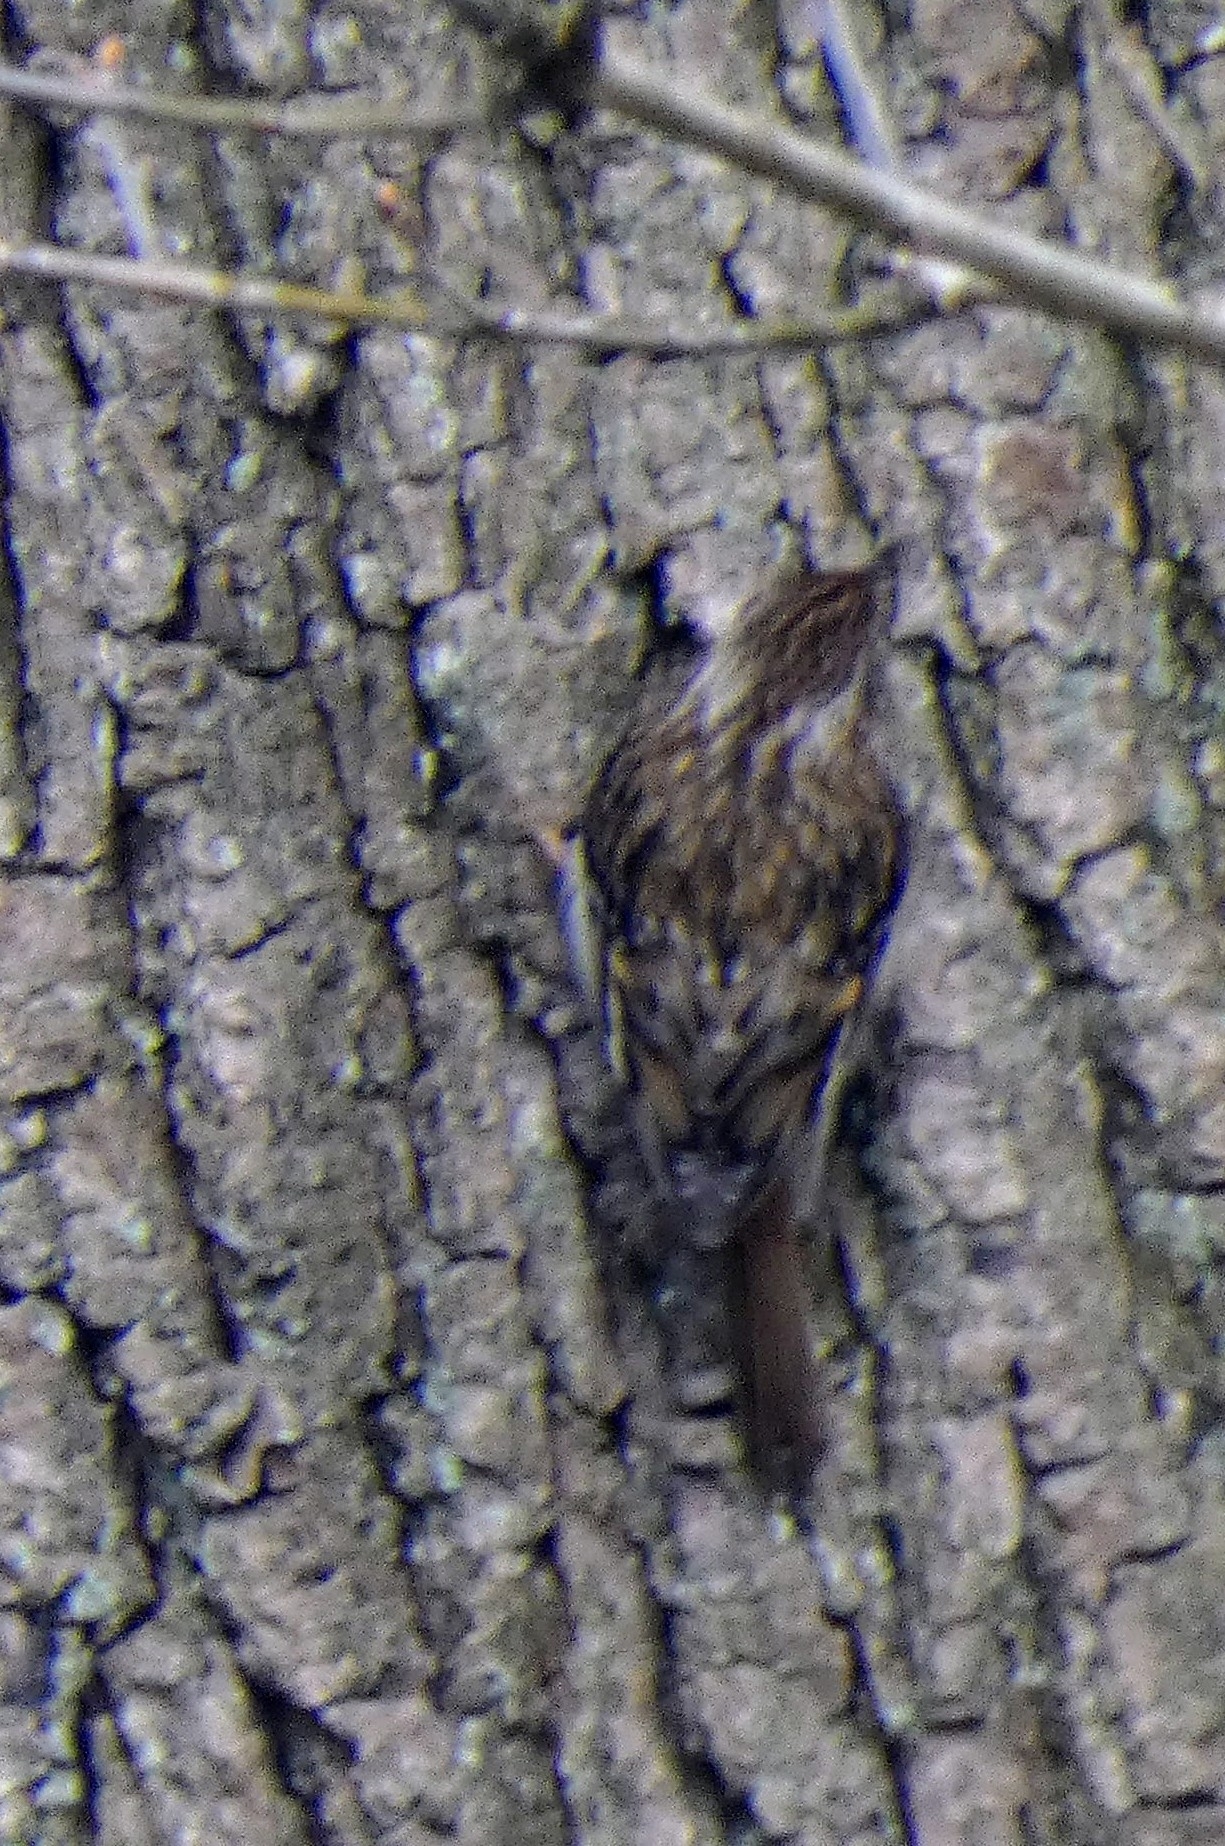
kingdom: Animalia
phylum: Chordata
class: Aves
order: Passeriformes
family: Certhiidae
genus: Certhia
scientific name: Certhia familiaris
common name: Eurasian treecreeper
